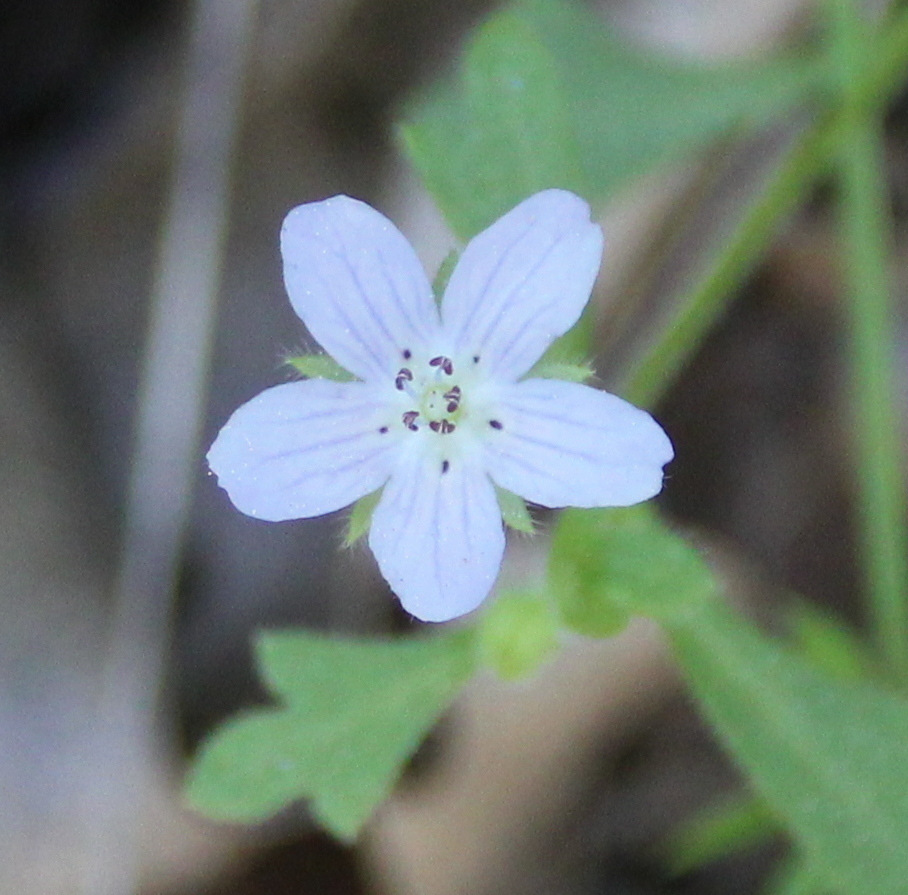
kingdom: Plantae
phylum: Tracheophyta
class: Magnoliopsida
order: Boraginales
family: Hydrophyllaceae
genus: Nemophila
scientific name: Nemophila menziesii
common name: Baby's-blue-eyes
